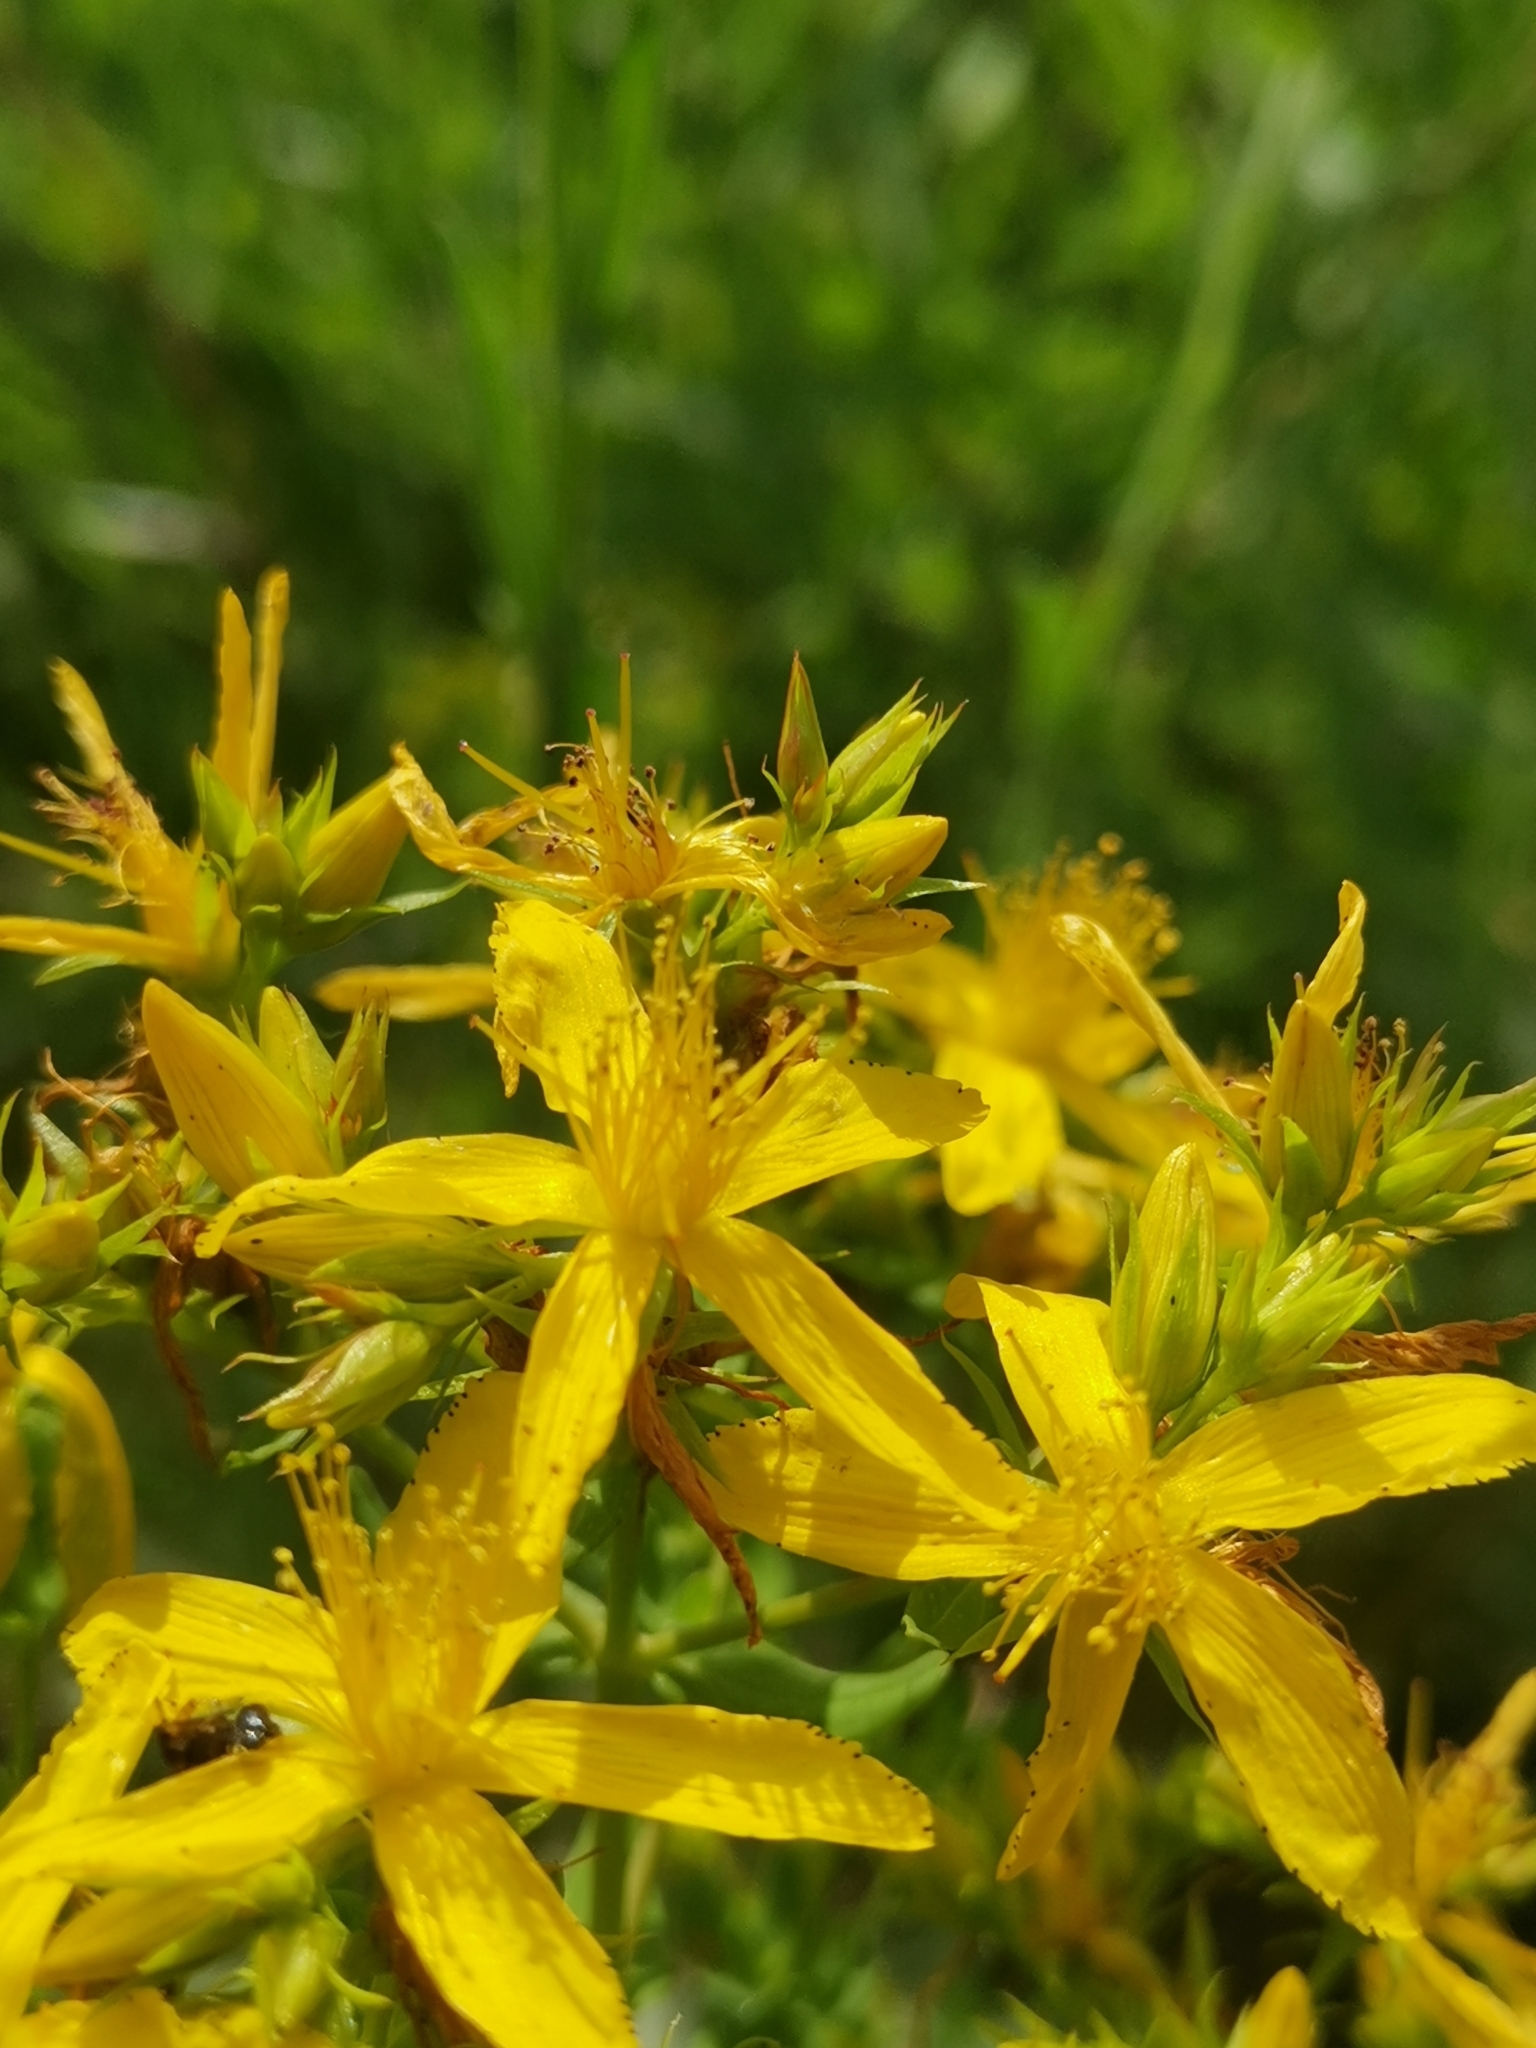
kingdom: Plantae
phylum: Tracheophyta
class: Magnoliopsida
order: Malpighiales
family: Hypericaceae
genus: Hypericum
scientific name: Hypericum perforatum
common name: Common st. johnswort
